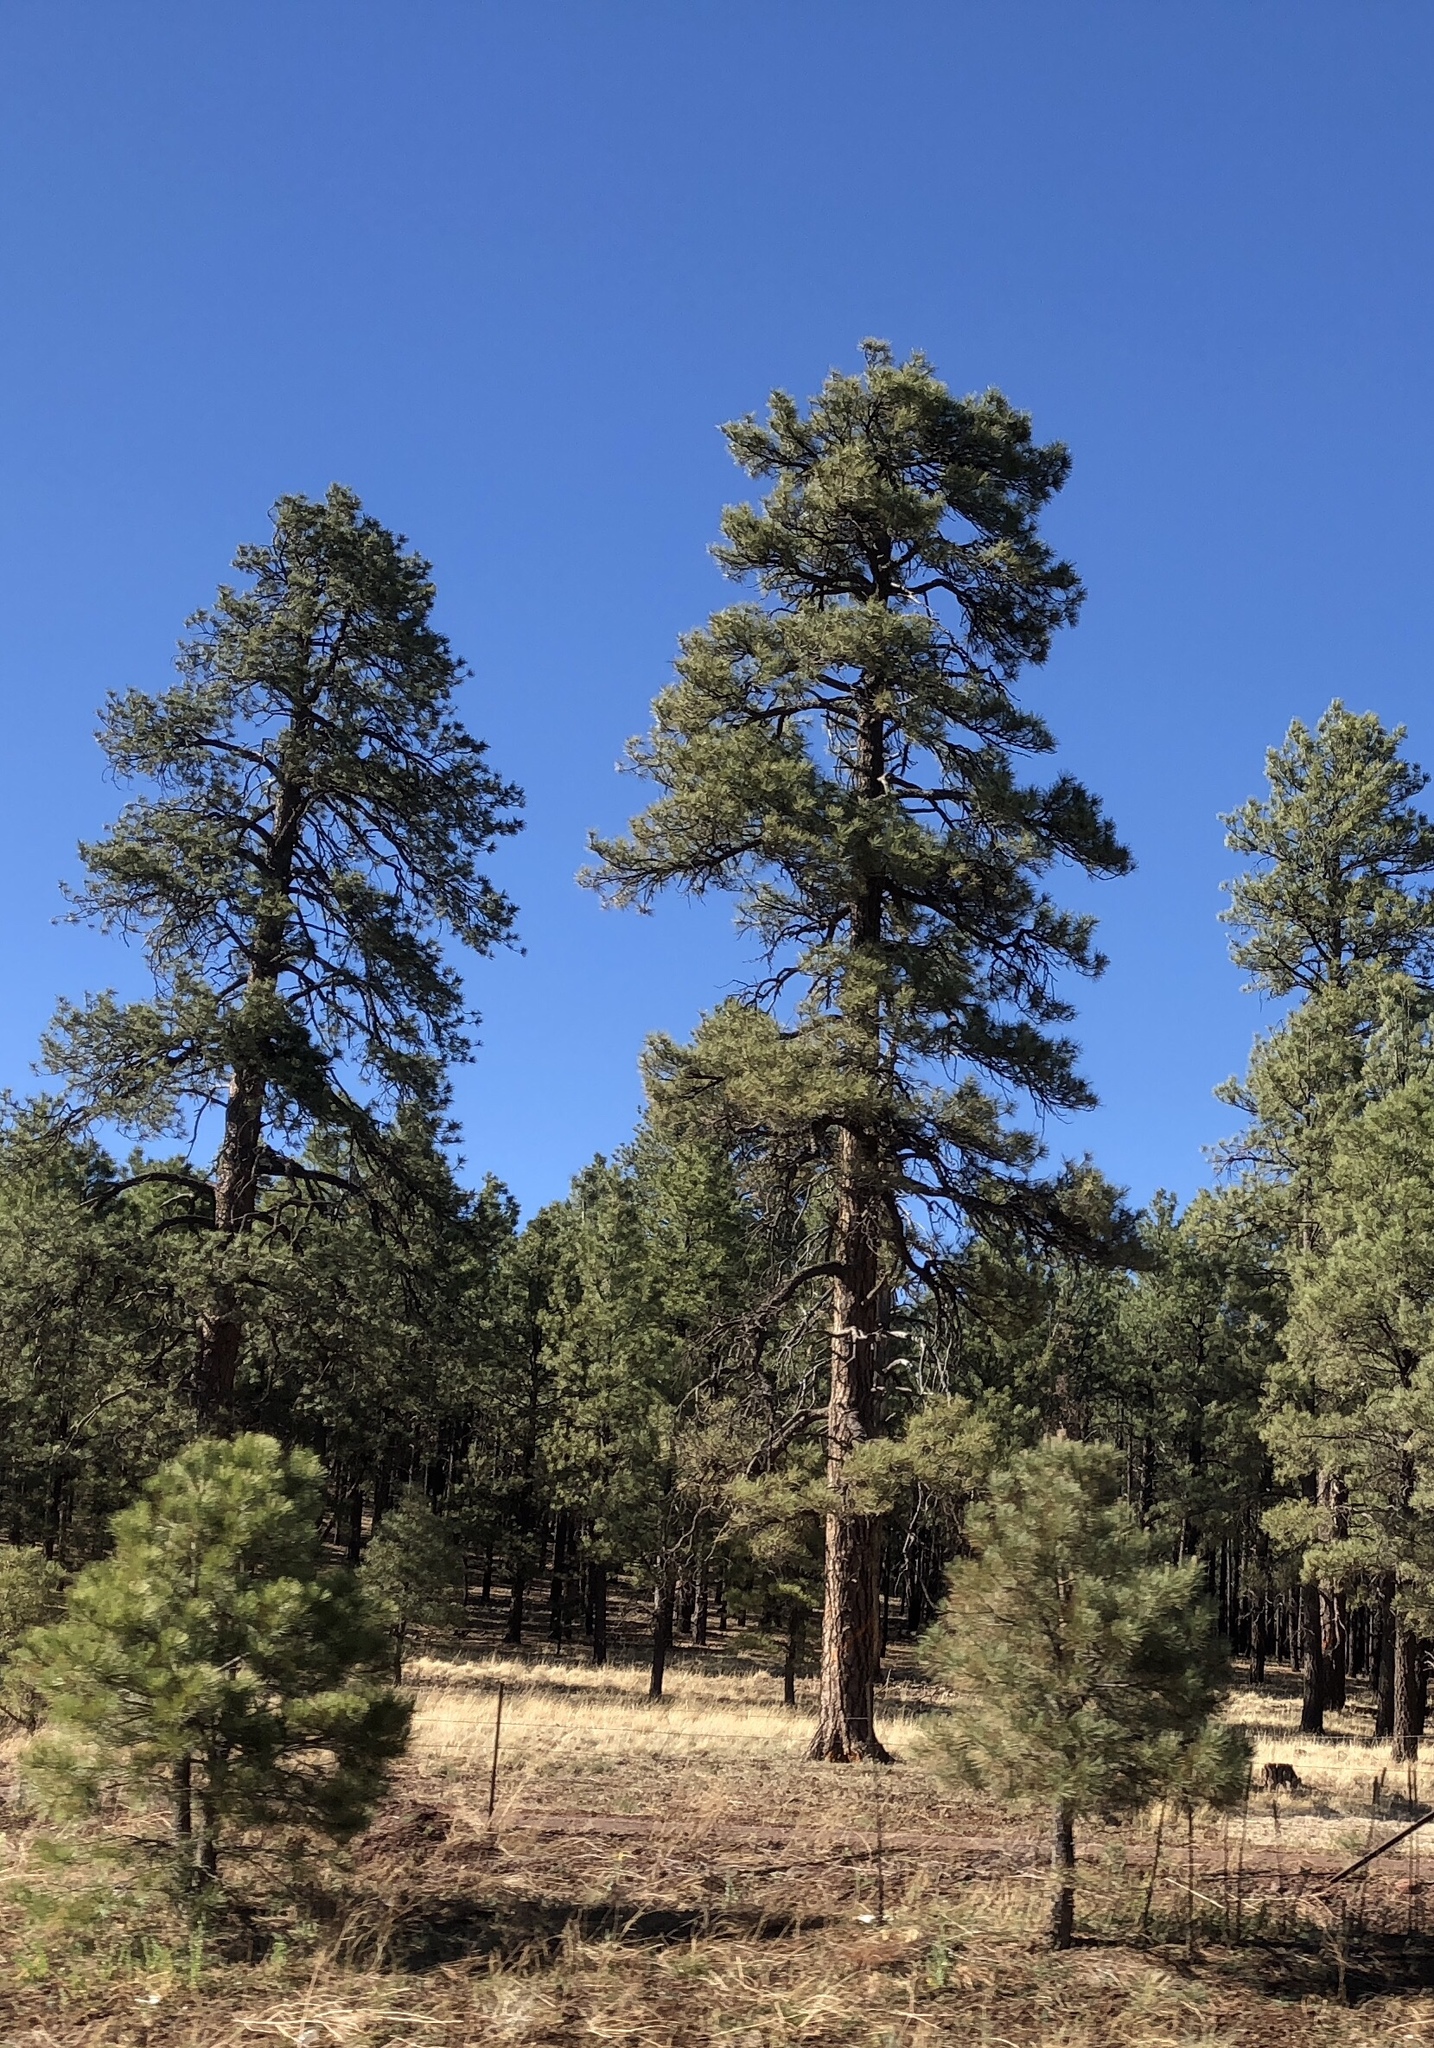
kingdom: Plantae
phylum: Tracheophyta
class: Pinopsida
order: Pinales
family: Pinaceae
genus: Pinus
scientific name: Pinus ponderosa
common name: Western yellow-pine
